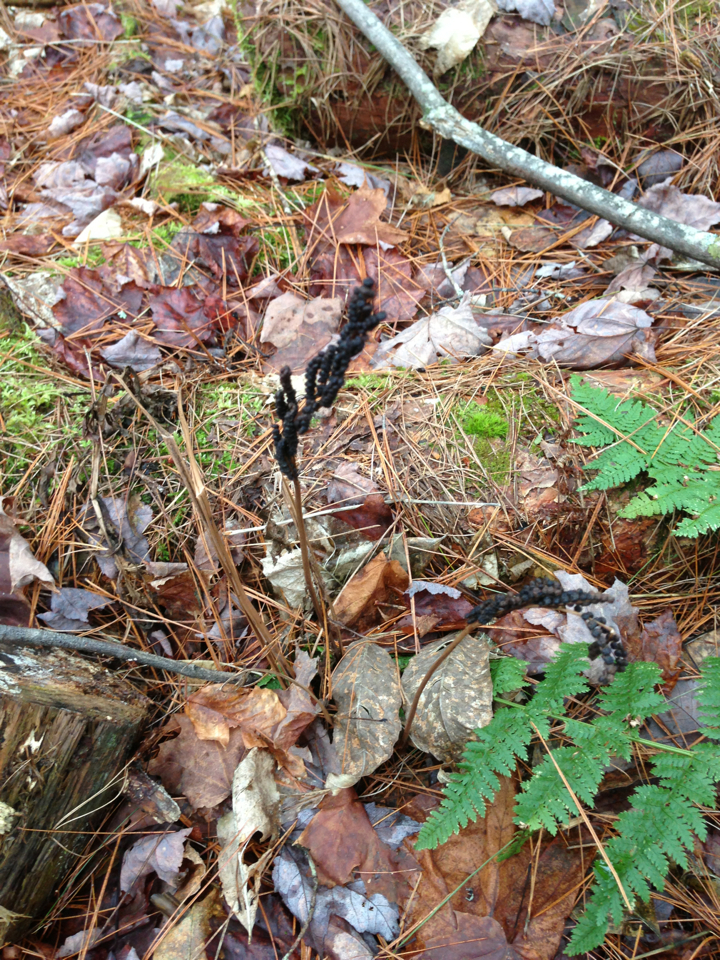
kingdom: Plantae
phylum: Tracheophyta
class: Polypodiopsida
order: Polypodiales
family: Onocleaceae
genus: Onoclea
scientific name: Onoclea sensibilis
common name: Sensitive fern
